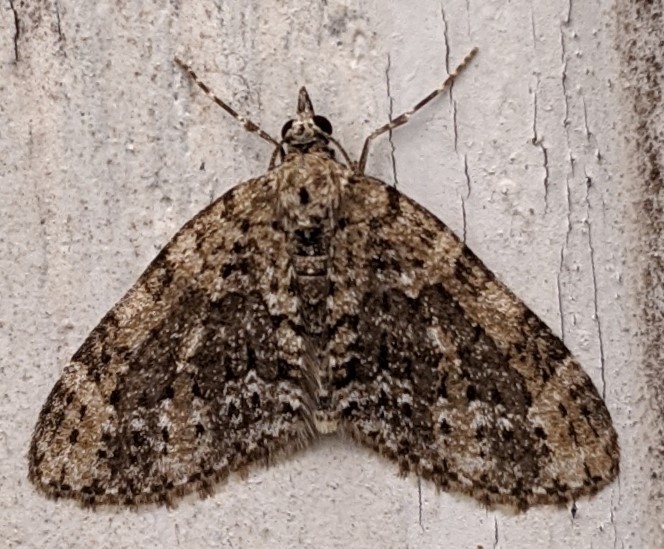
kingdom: Animalia
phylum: Arthropoda
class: Insecta
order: Lepidoptera
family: Geometridae
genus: Acasis
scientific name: Acasis viridata
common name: Olive-and-black carpet moth
